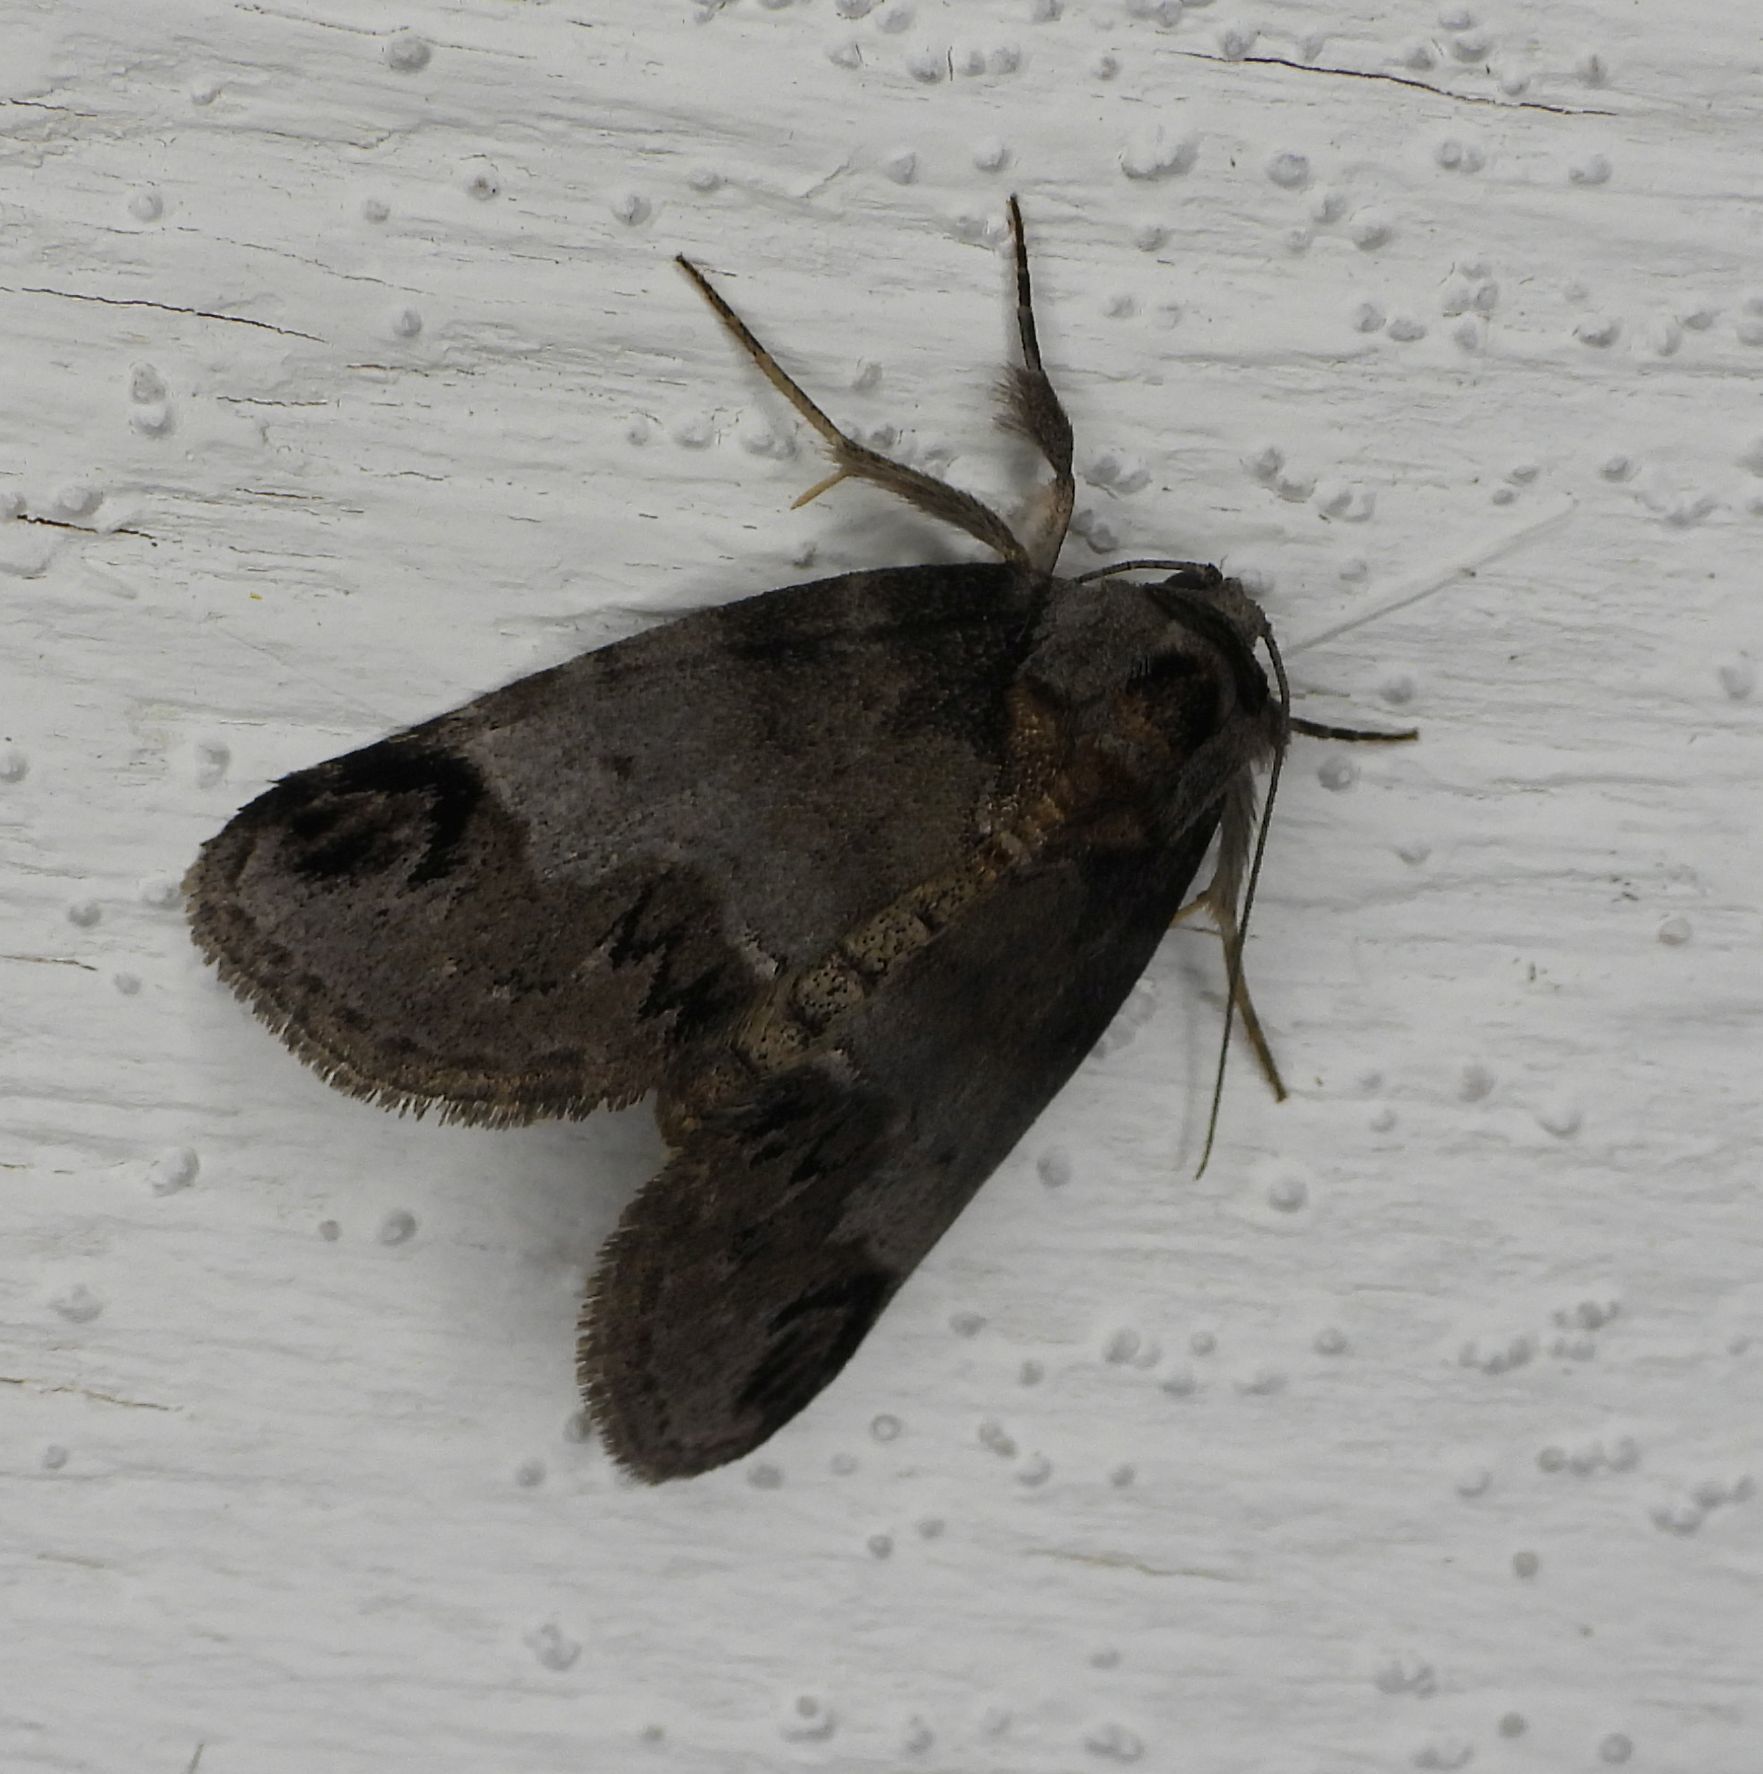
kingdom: Animalia
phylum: Arthropoda
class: Insecta
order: Lepidoptera
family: Nolidae
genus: Baileya
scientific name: Baileya dormitans
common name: Sleeping baileya moth
